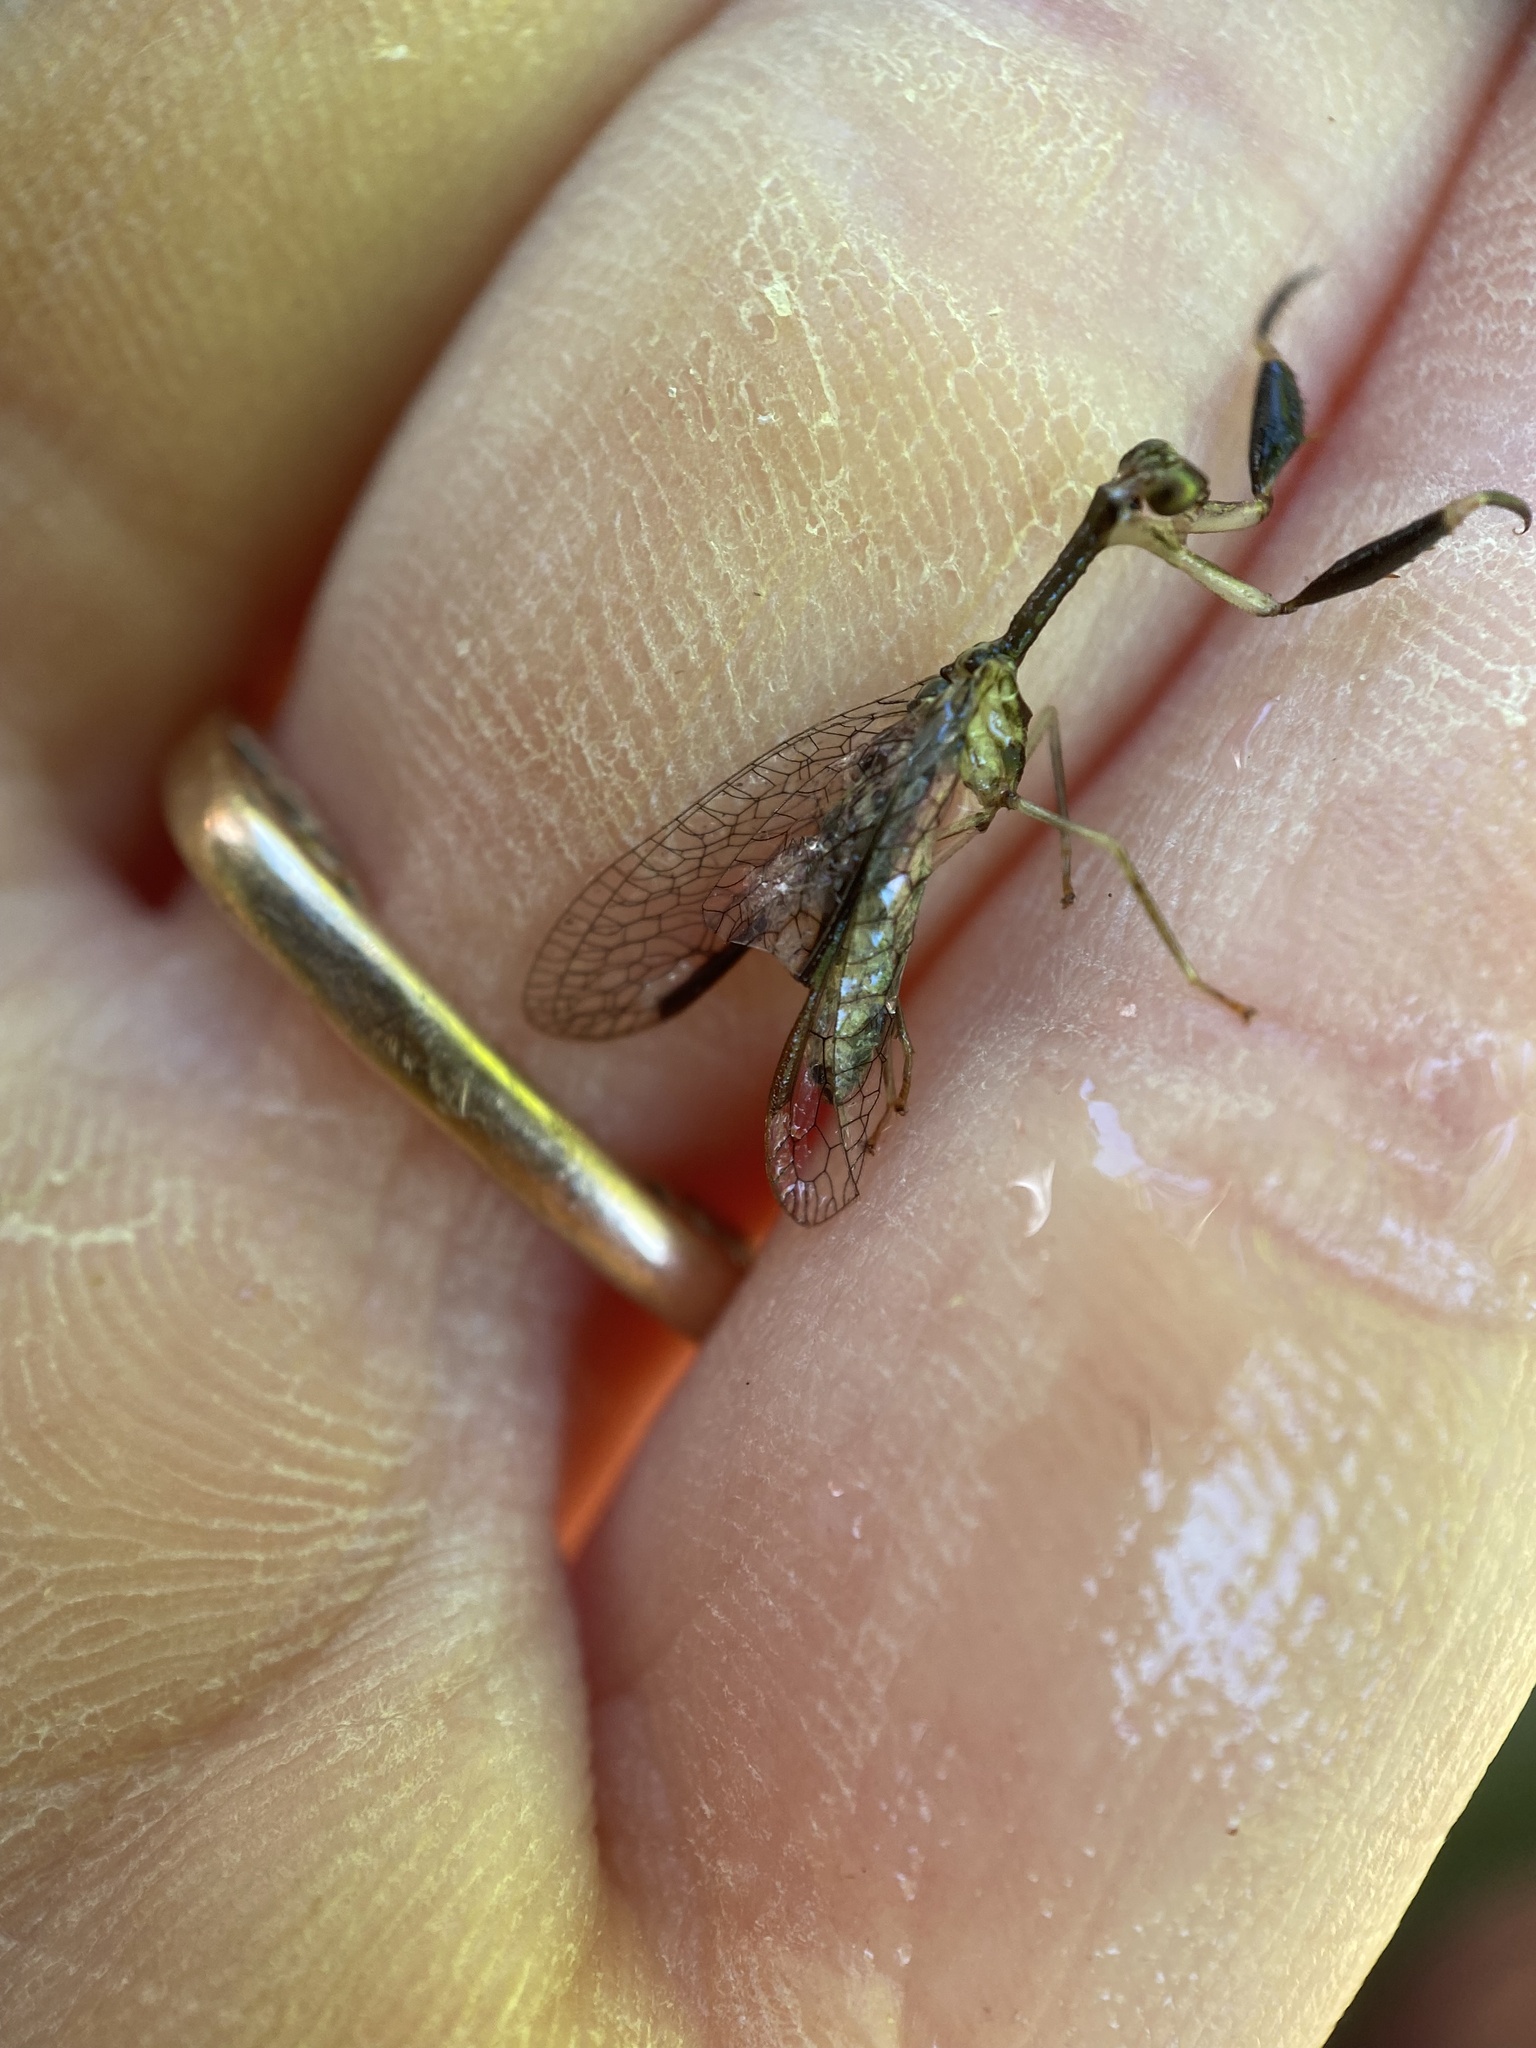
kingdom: Animalia
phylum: Arthropoda
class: Insecta
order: Neuroptera
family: Mantispidae
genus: Dicromantispa
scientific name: Dicromantispa sayi
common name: Say's mantidfly
